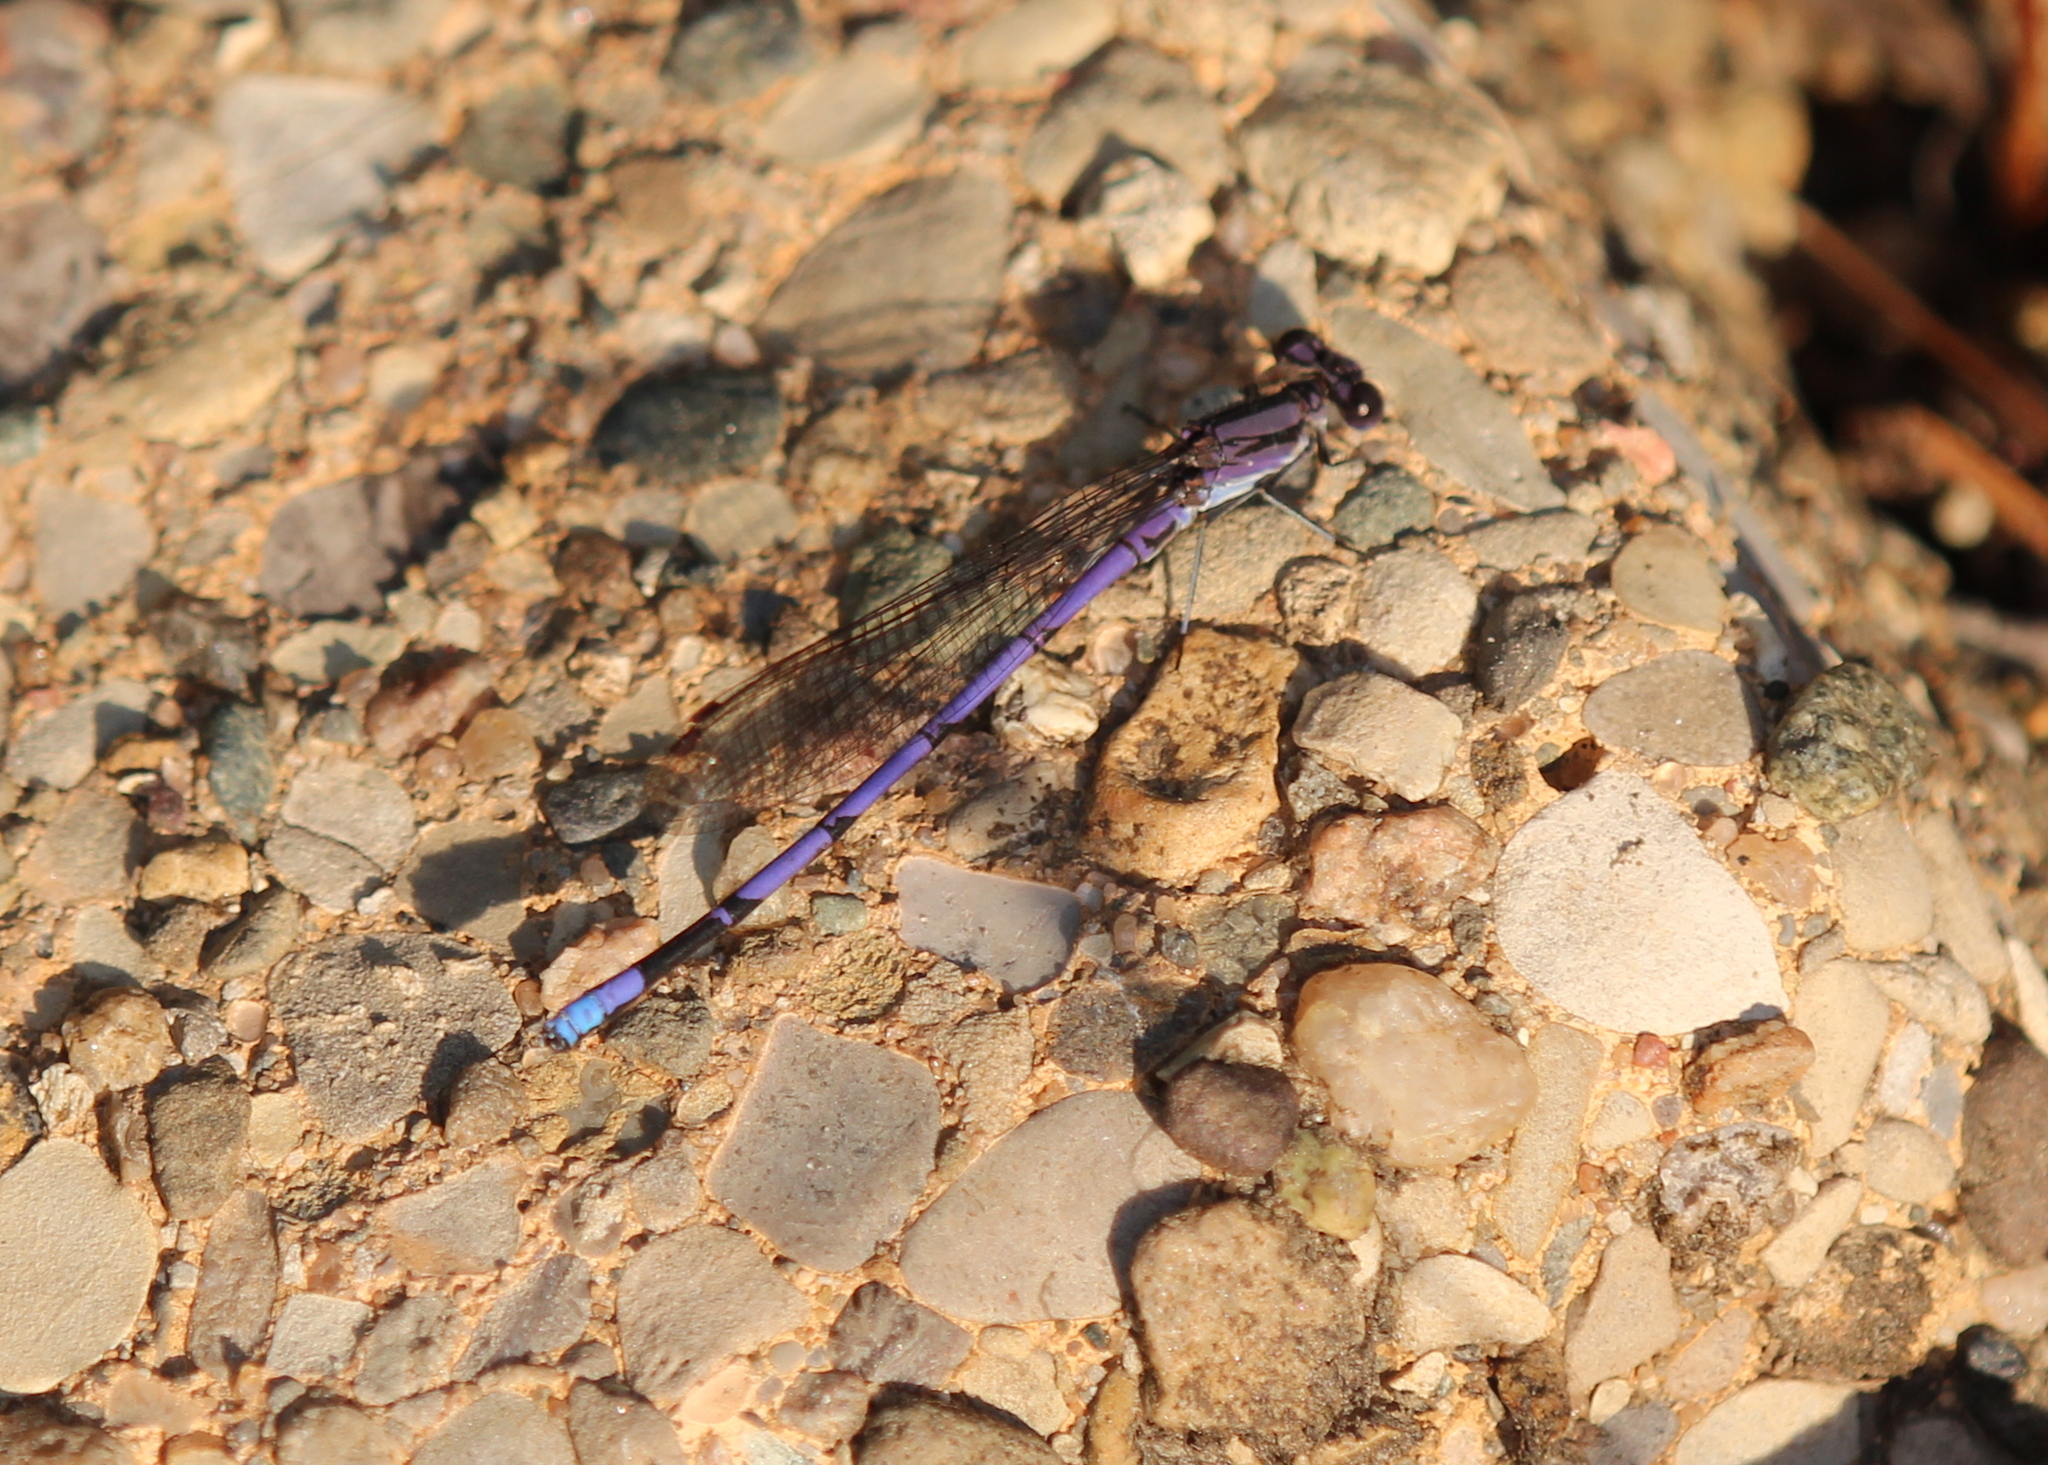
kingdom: Animalia
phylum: Arthropoda
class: Insecta
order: Odonata
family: Coenagrionidae
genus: Argia
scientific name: Argia fumipennis
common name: Variable dancer
